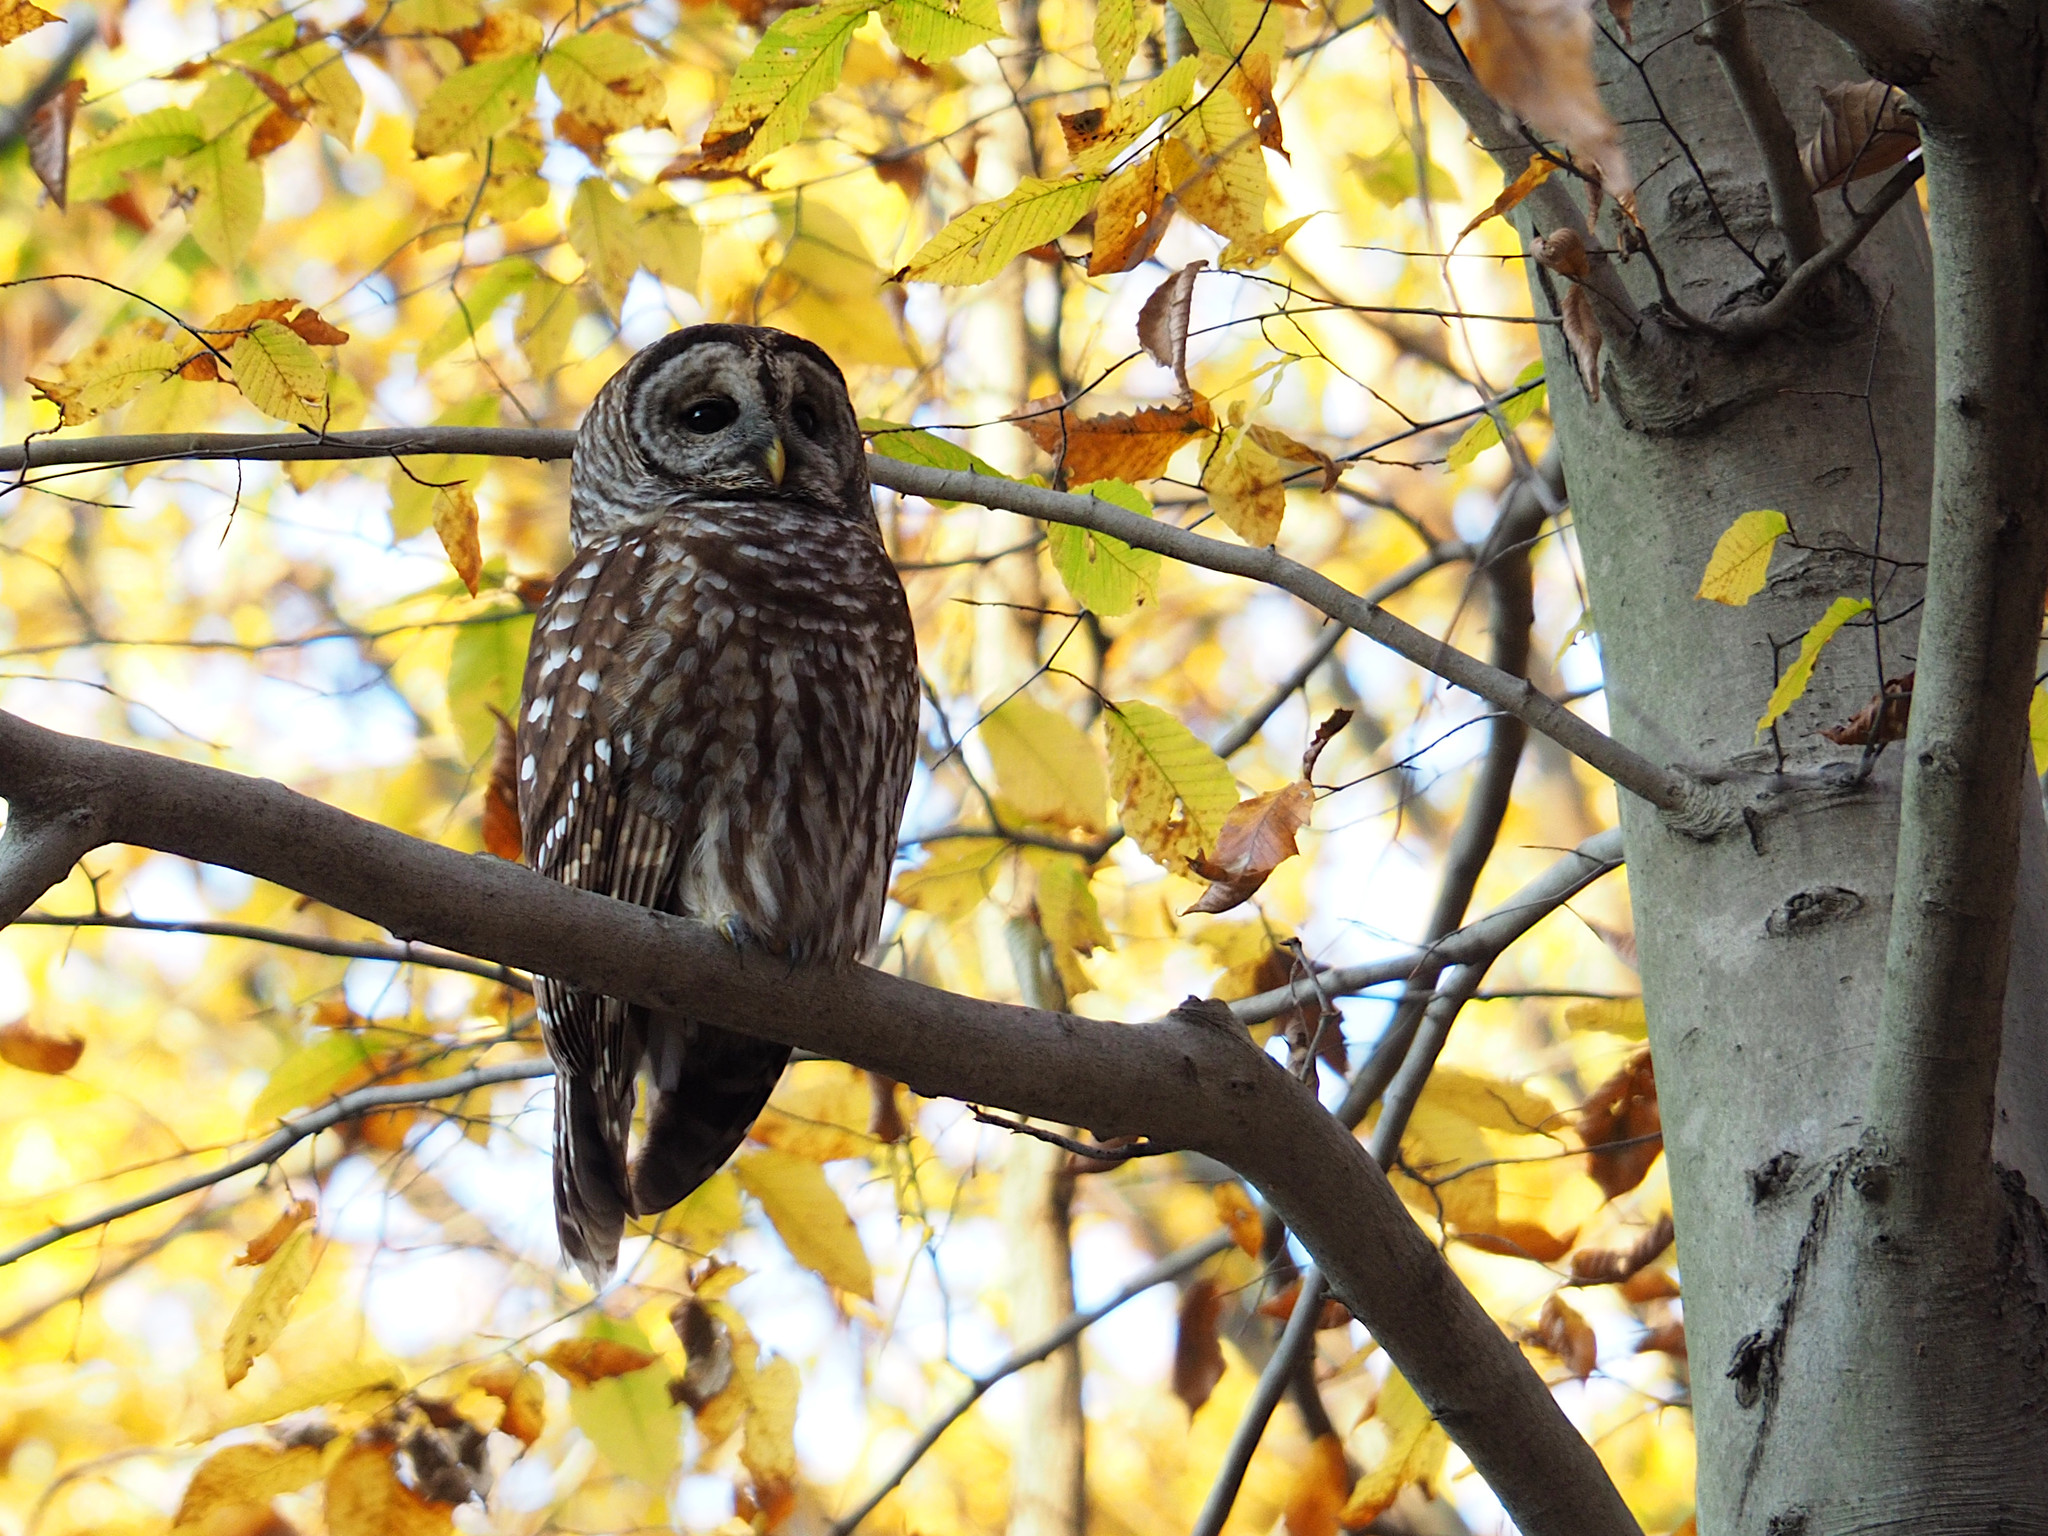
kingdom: Animalia
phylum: Chordata
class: Aves
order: Strigiformes
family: Strigidae
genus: Strix
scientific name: Strix varia
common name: Barred owl
